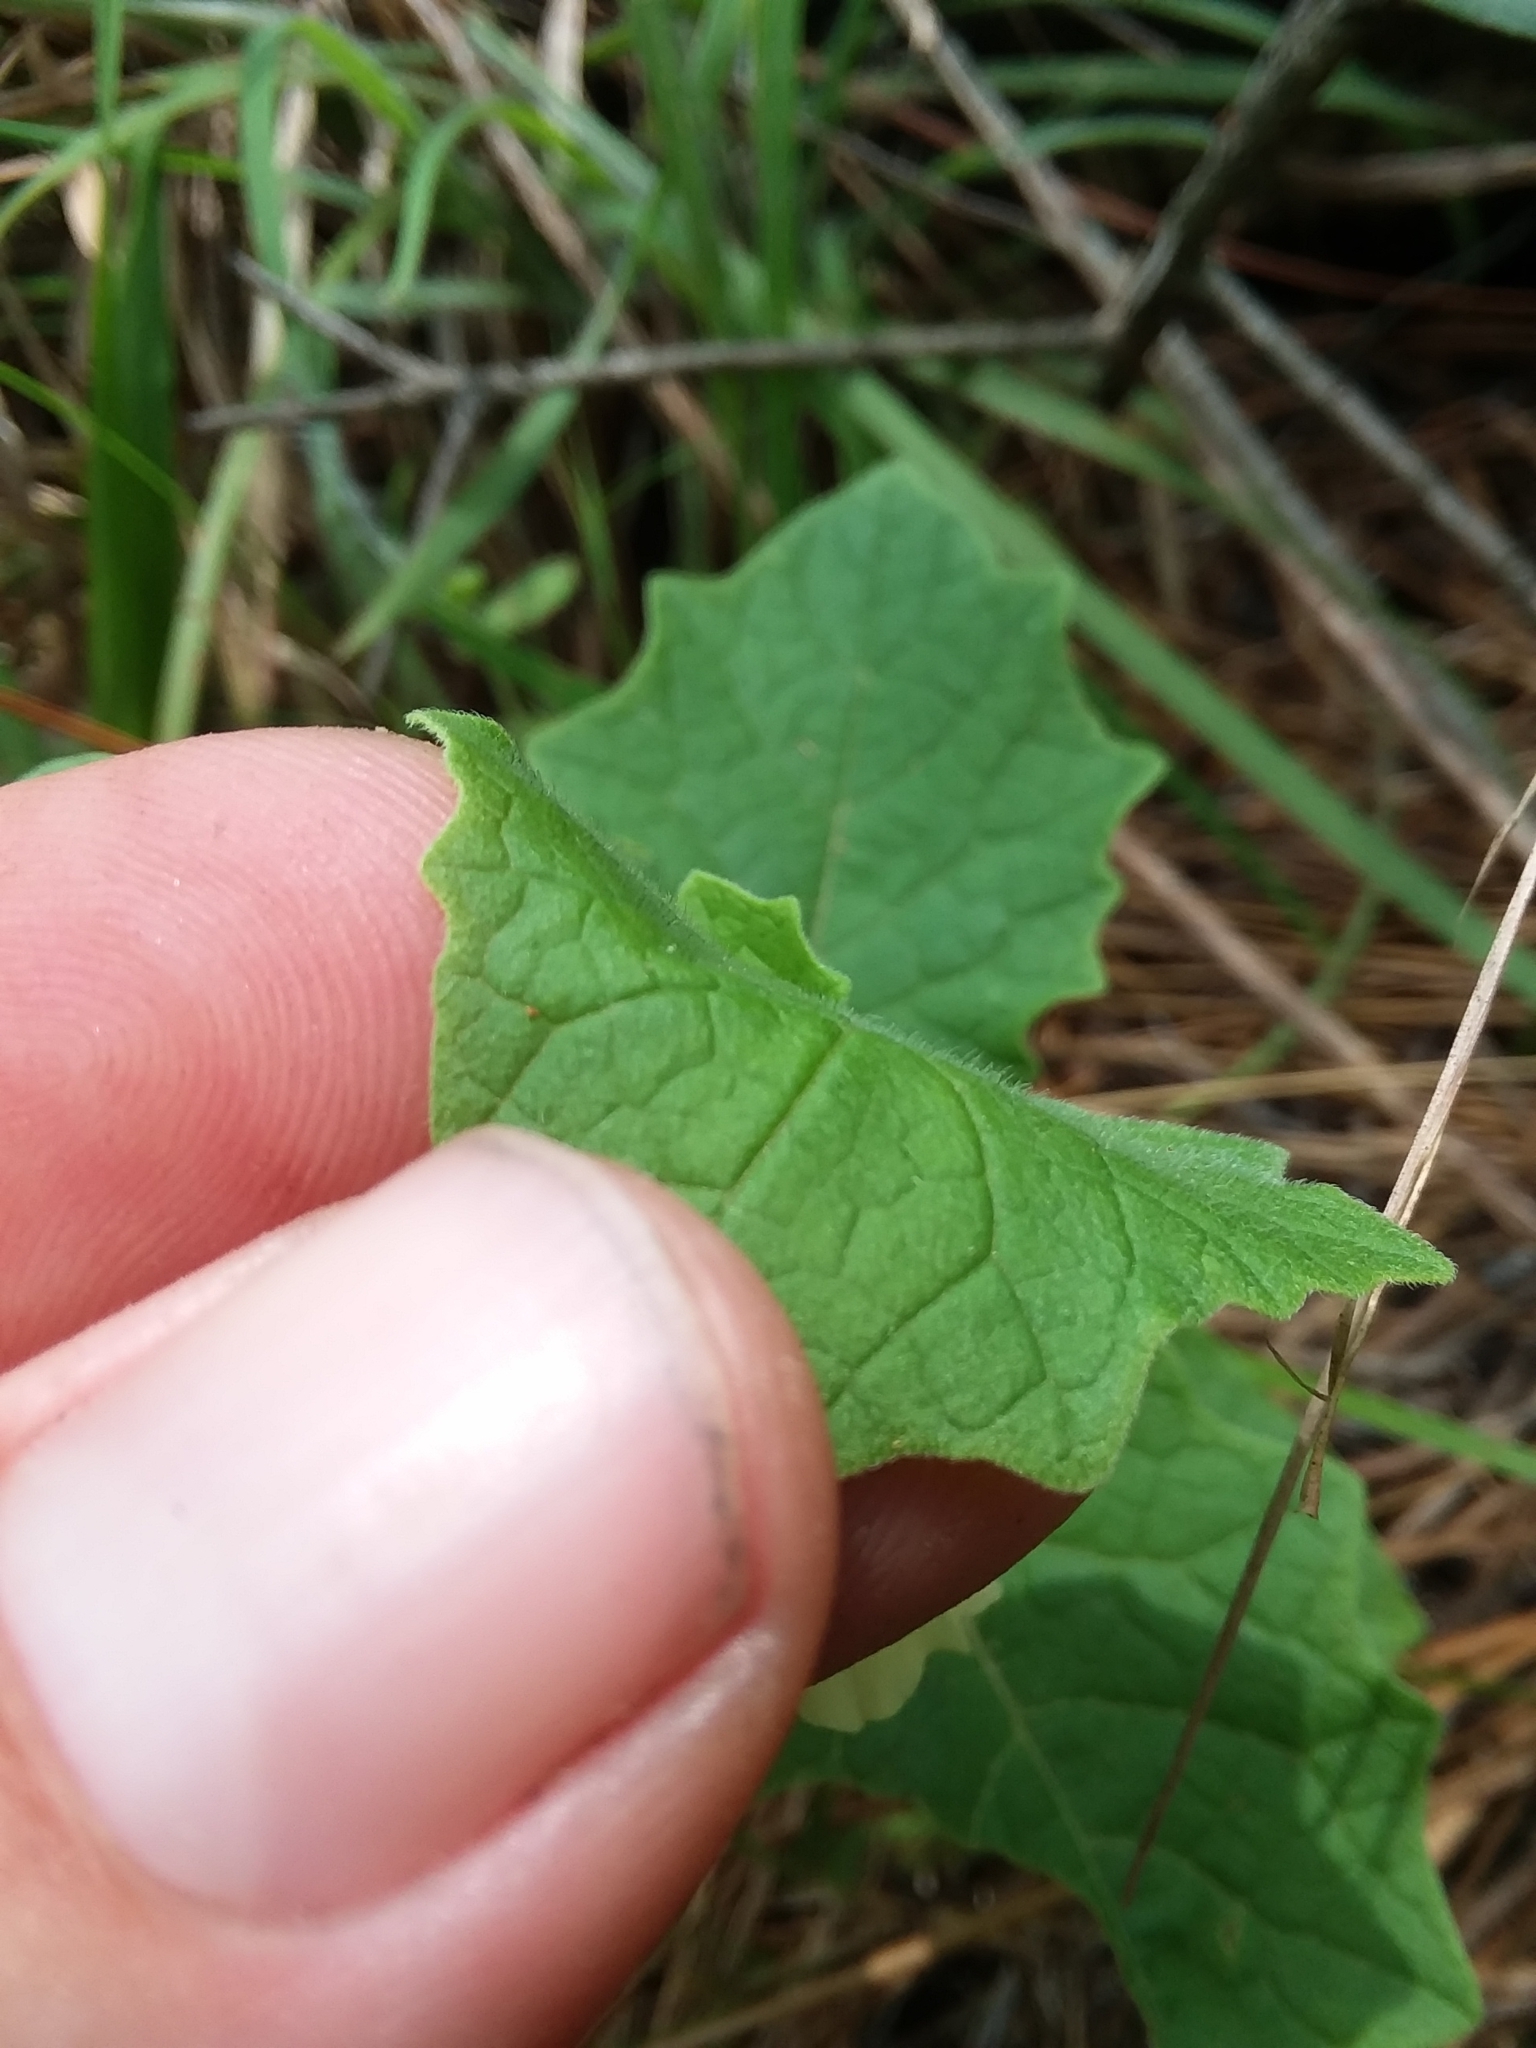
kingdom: Plantae
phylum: Tracheophyta
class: Magnoliopsida
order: Solanales
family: Solanaceae
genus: Physalis
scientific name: Physalis heterophylla
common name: Clammy ground-cherry
